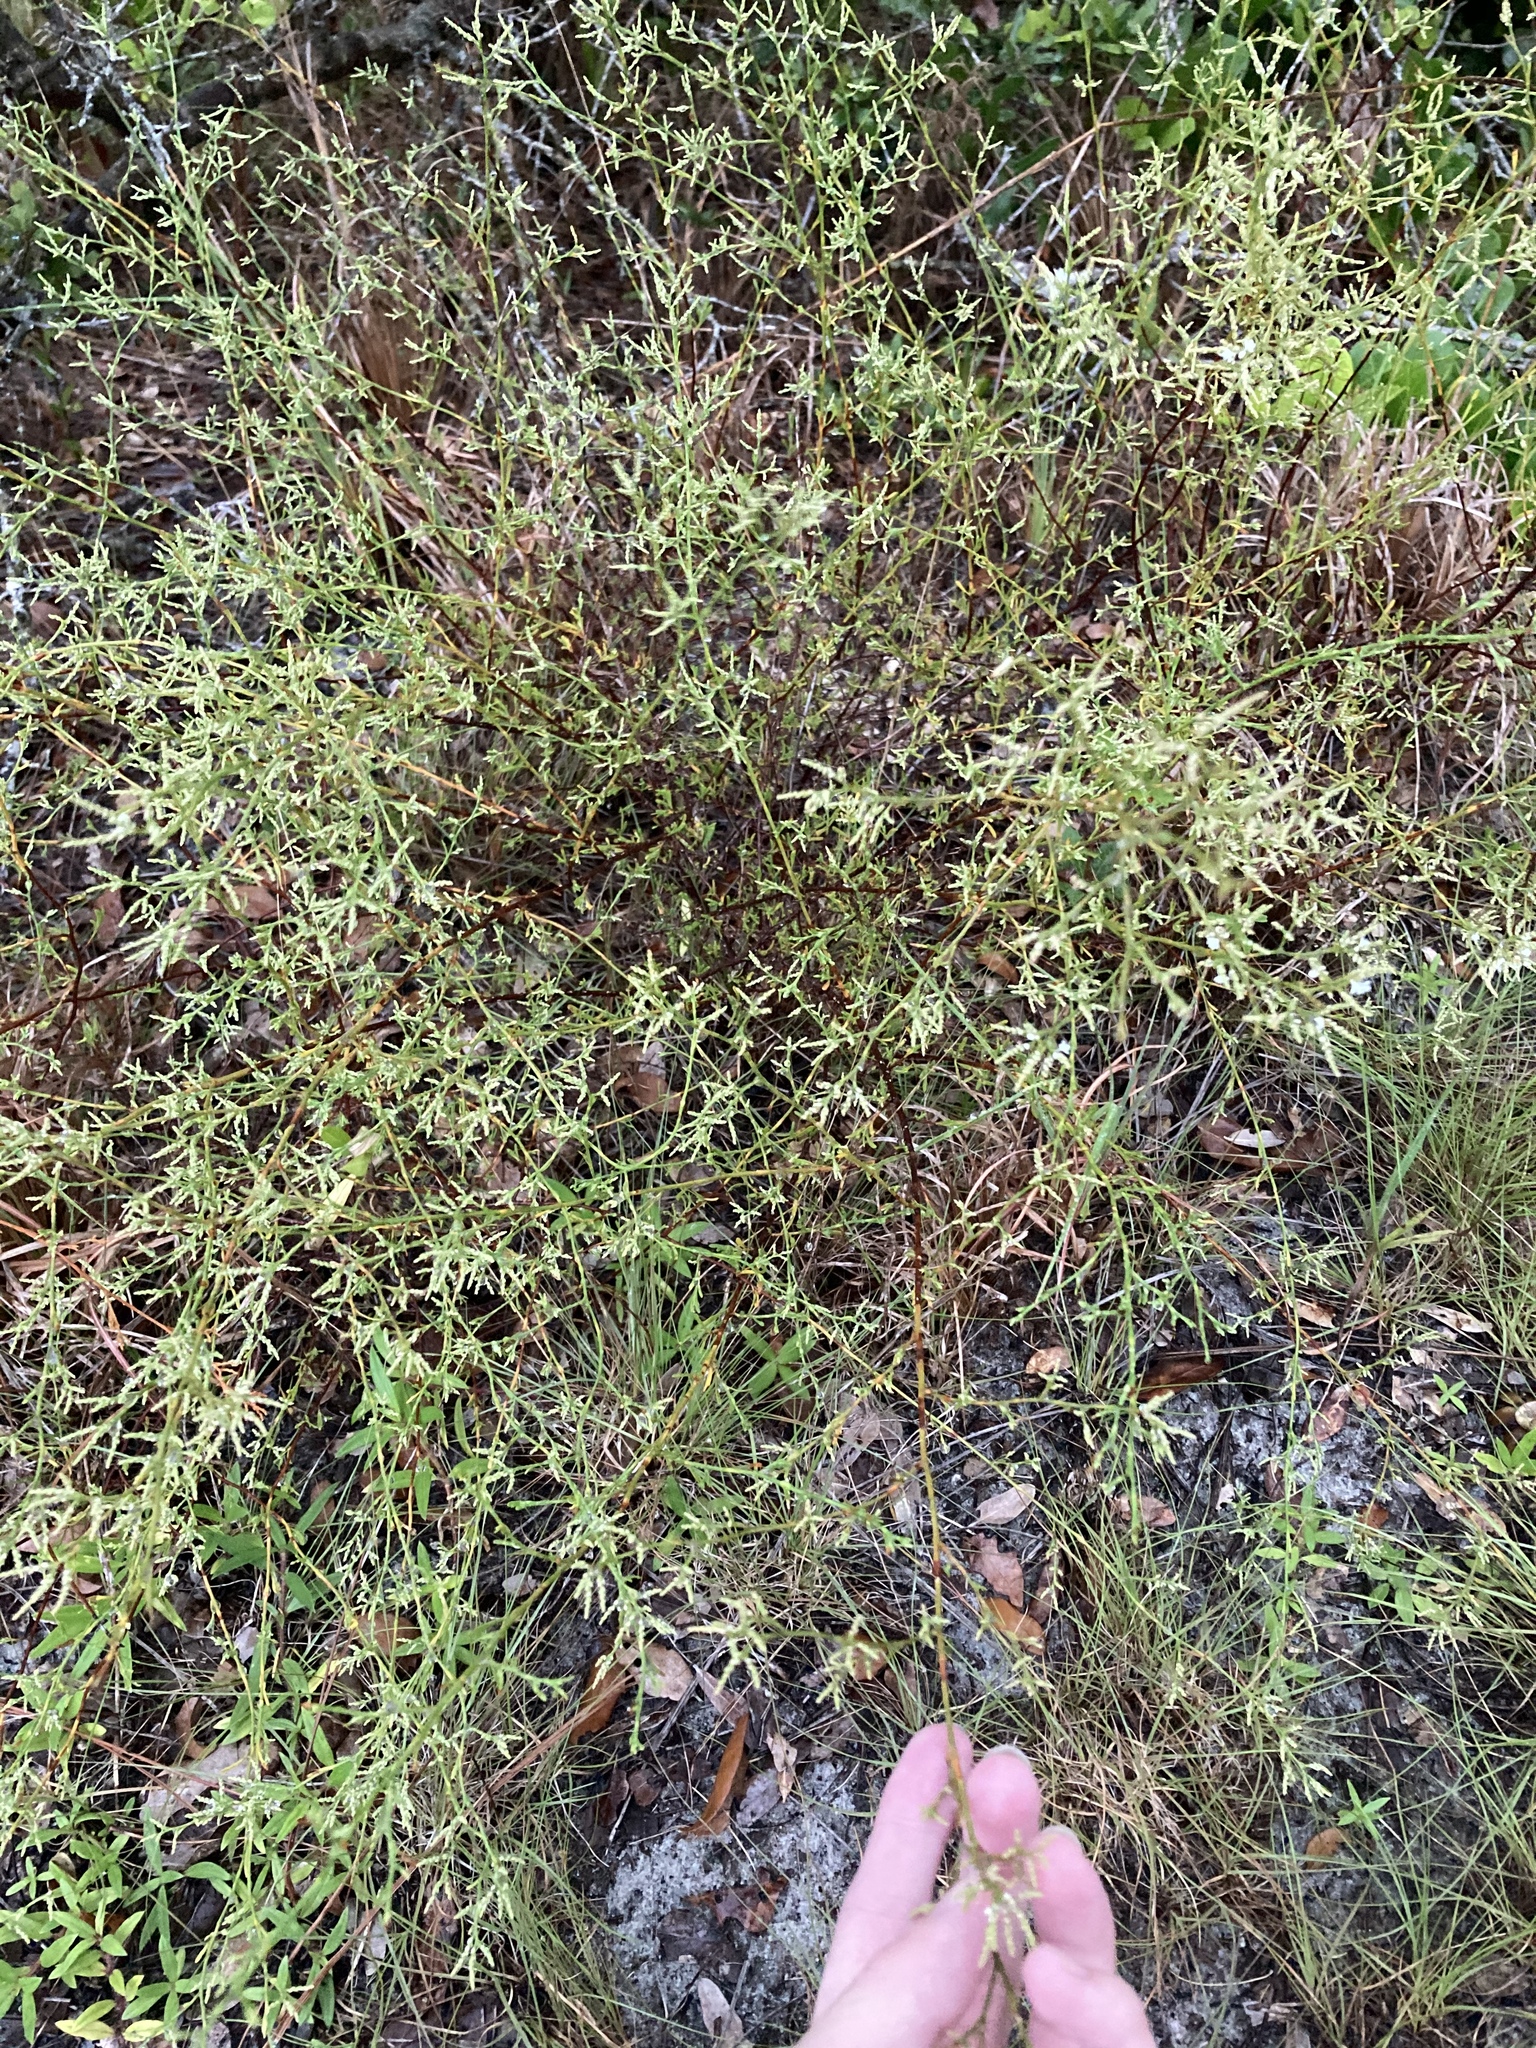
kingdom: Plantae
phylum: Tracheophyta
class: Magnoliopsida
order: Caryophyllales
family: Polygonaceae
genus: Polygonella
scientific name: Polygonella polygama
